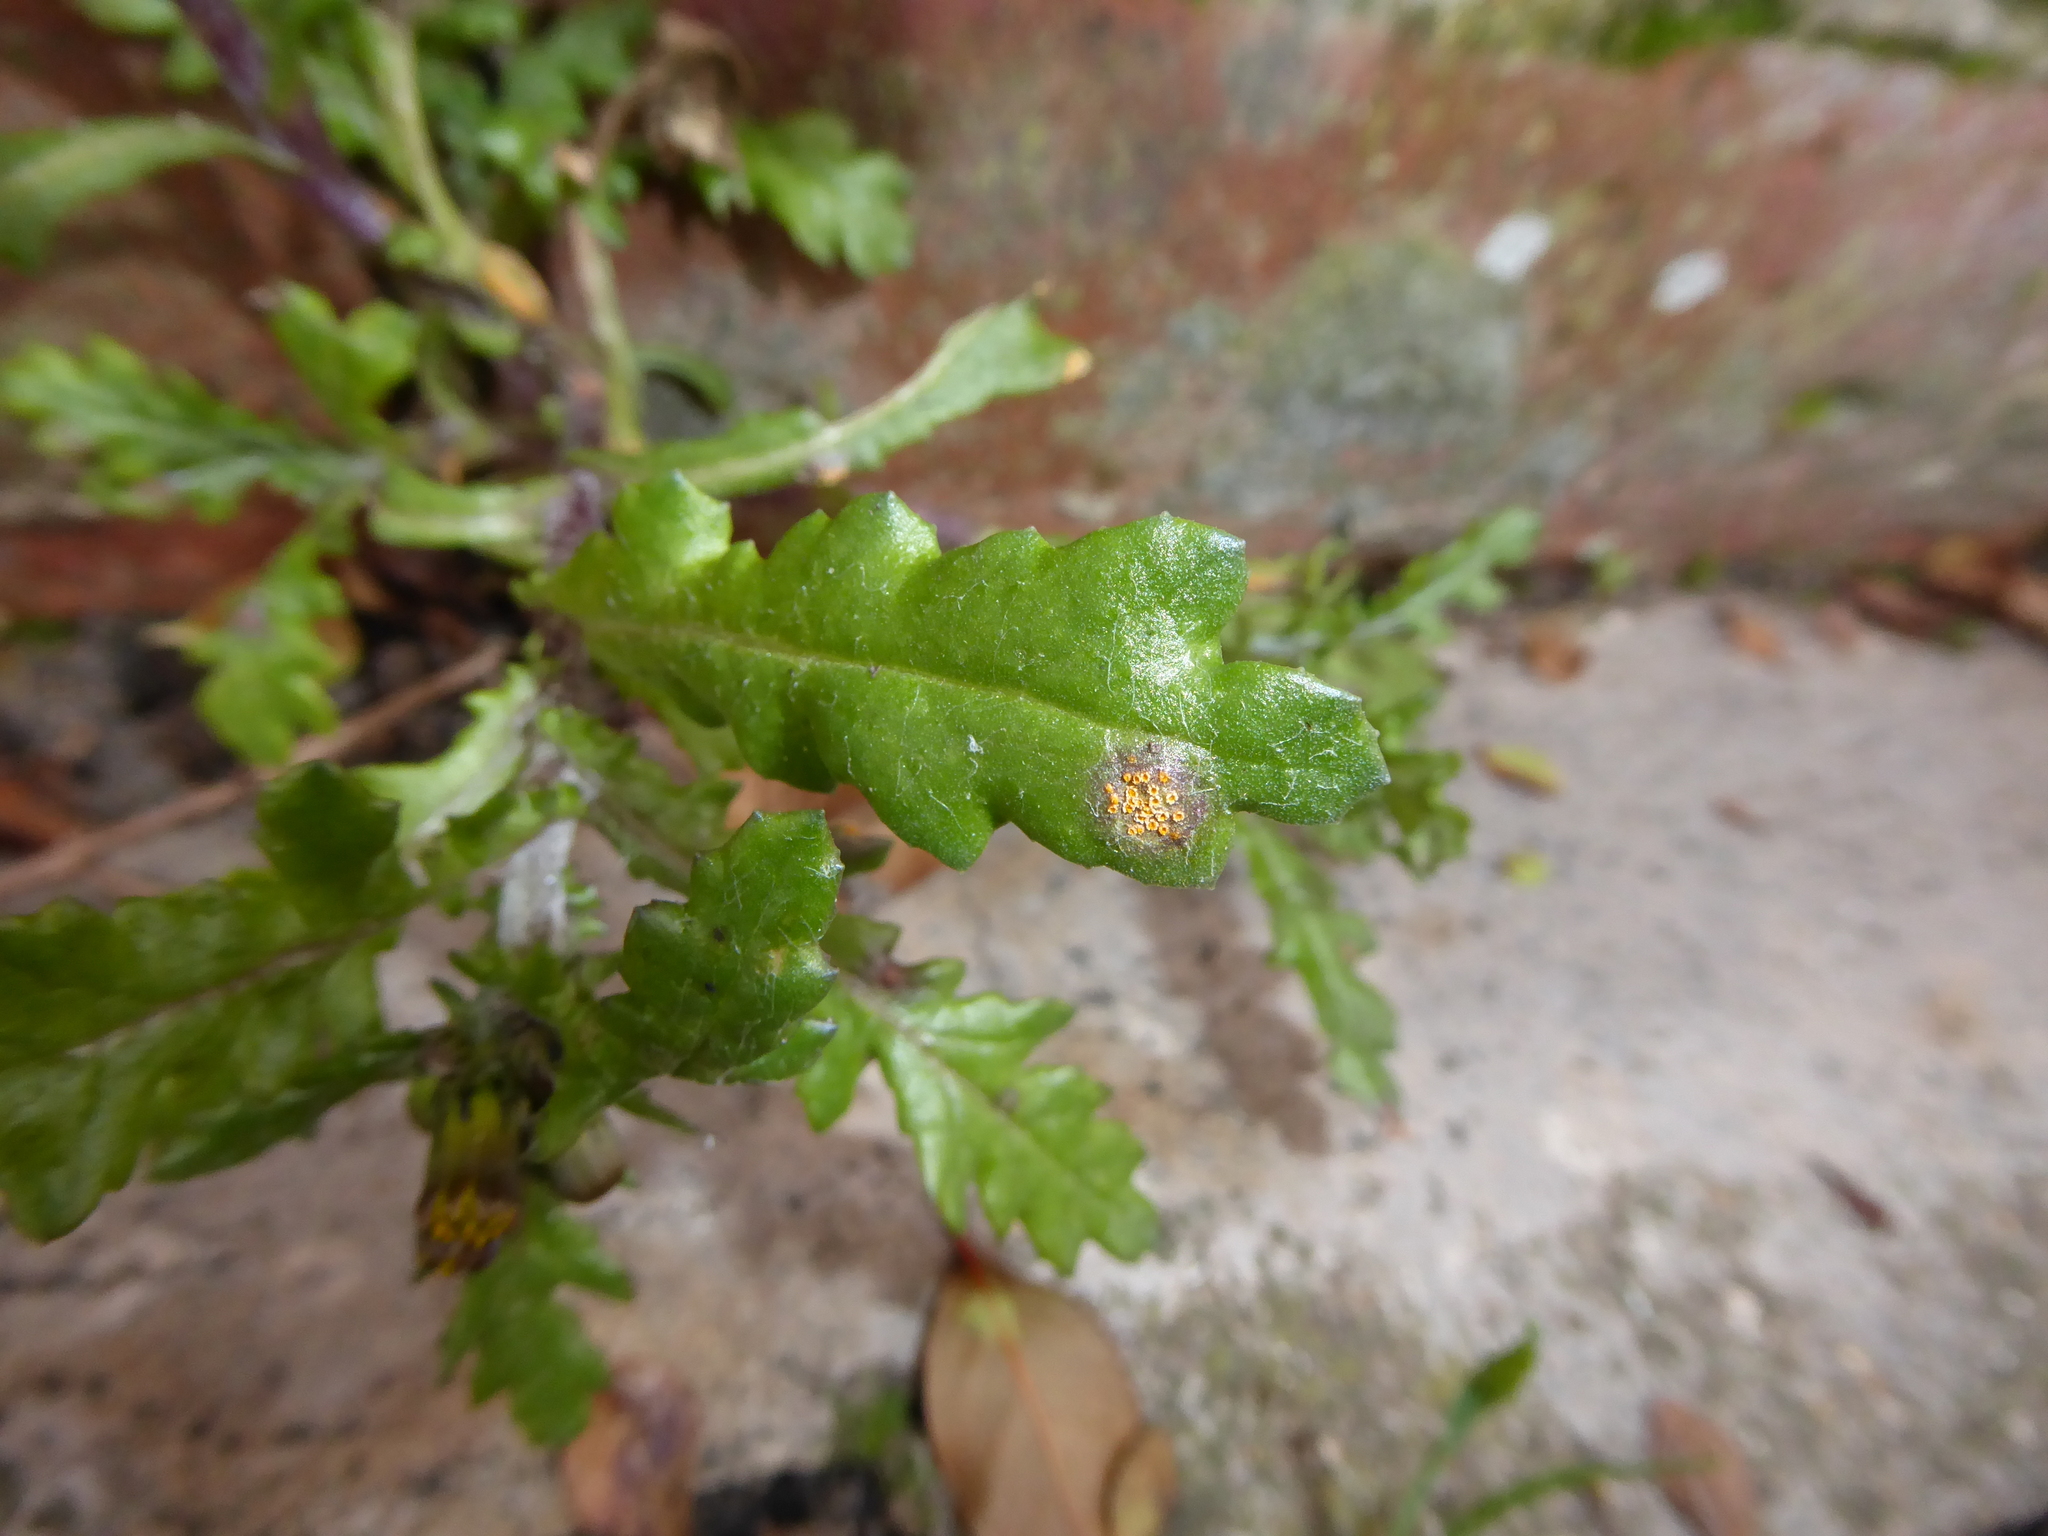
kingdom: Fungi
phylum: Basidiomycota
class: Pucciniomycetes
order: Pucciniales
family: Pucciniaceae
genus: Puccinia
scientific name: Puccinia lagenophorae
